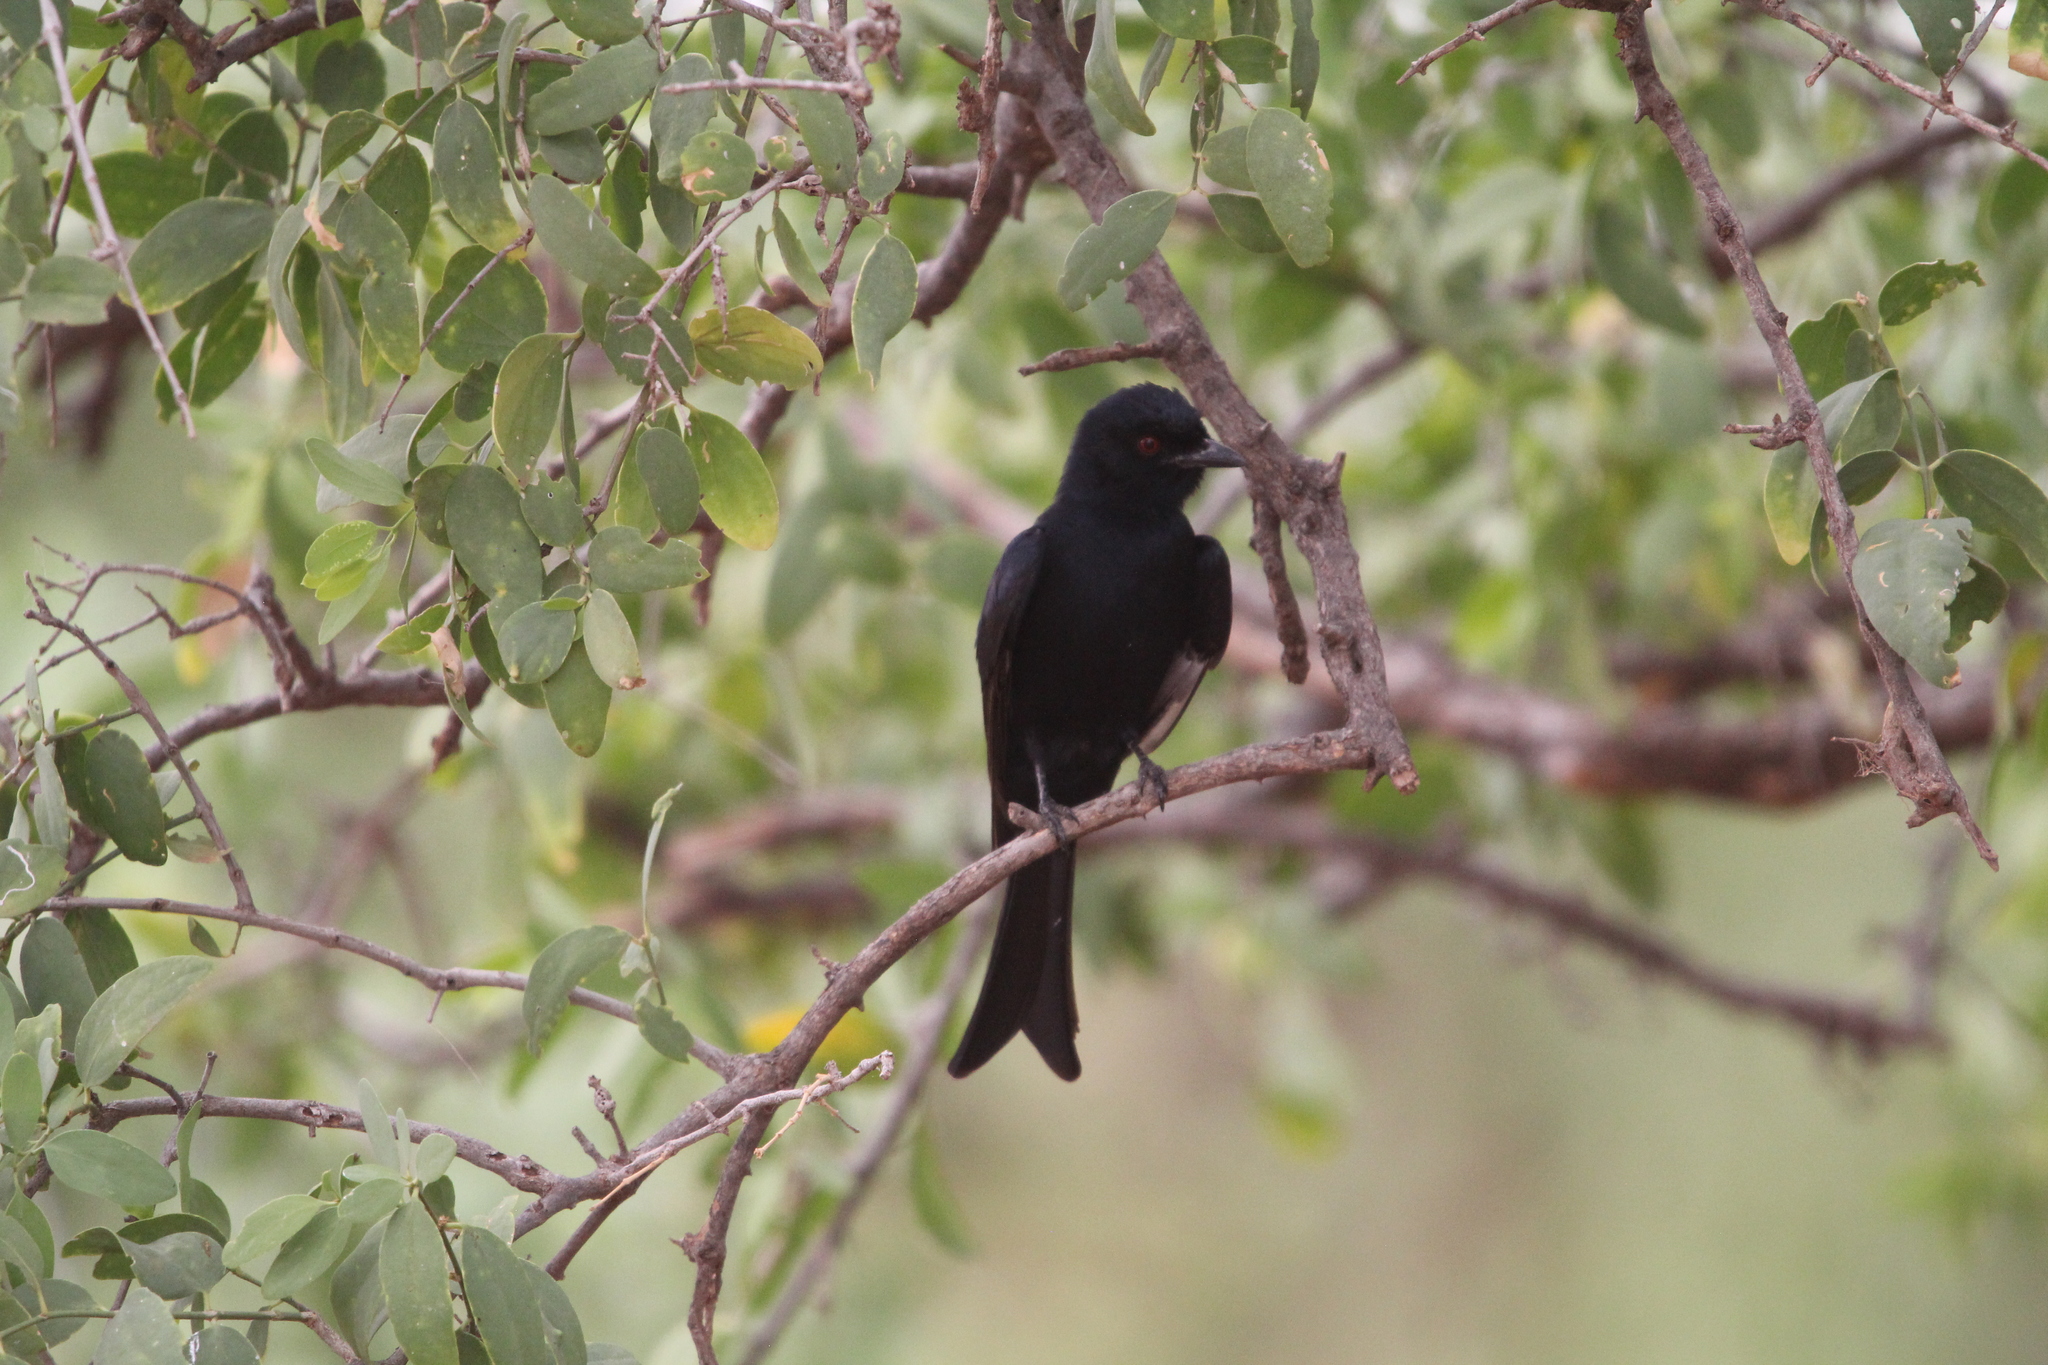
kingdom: Animalia
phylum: Chordata
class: Aves
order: Passeriformes
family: Dicruridae
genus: Dicrurus
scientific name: Dicrurus adsimilis
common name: Fork-tailed drongo
